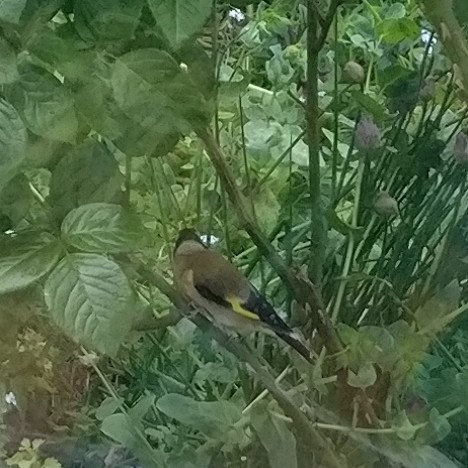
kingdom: Animalia
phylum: Chordata
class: Aves
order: Passeriformes
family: Fringillidae
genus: Carduelis
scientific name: Carduelis carduelis
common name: European goldfinch
